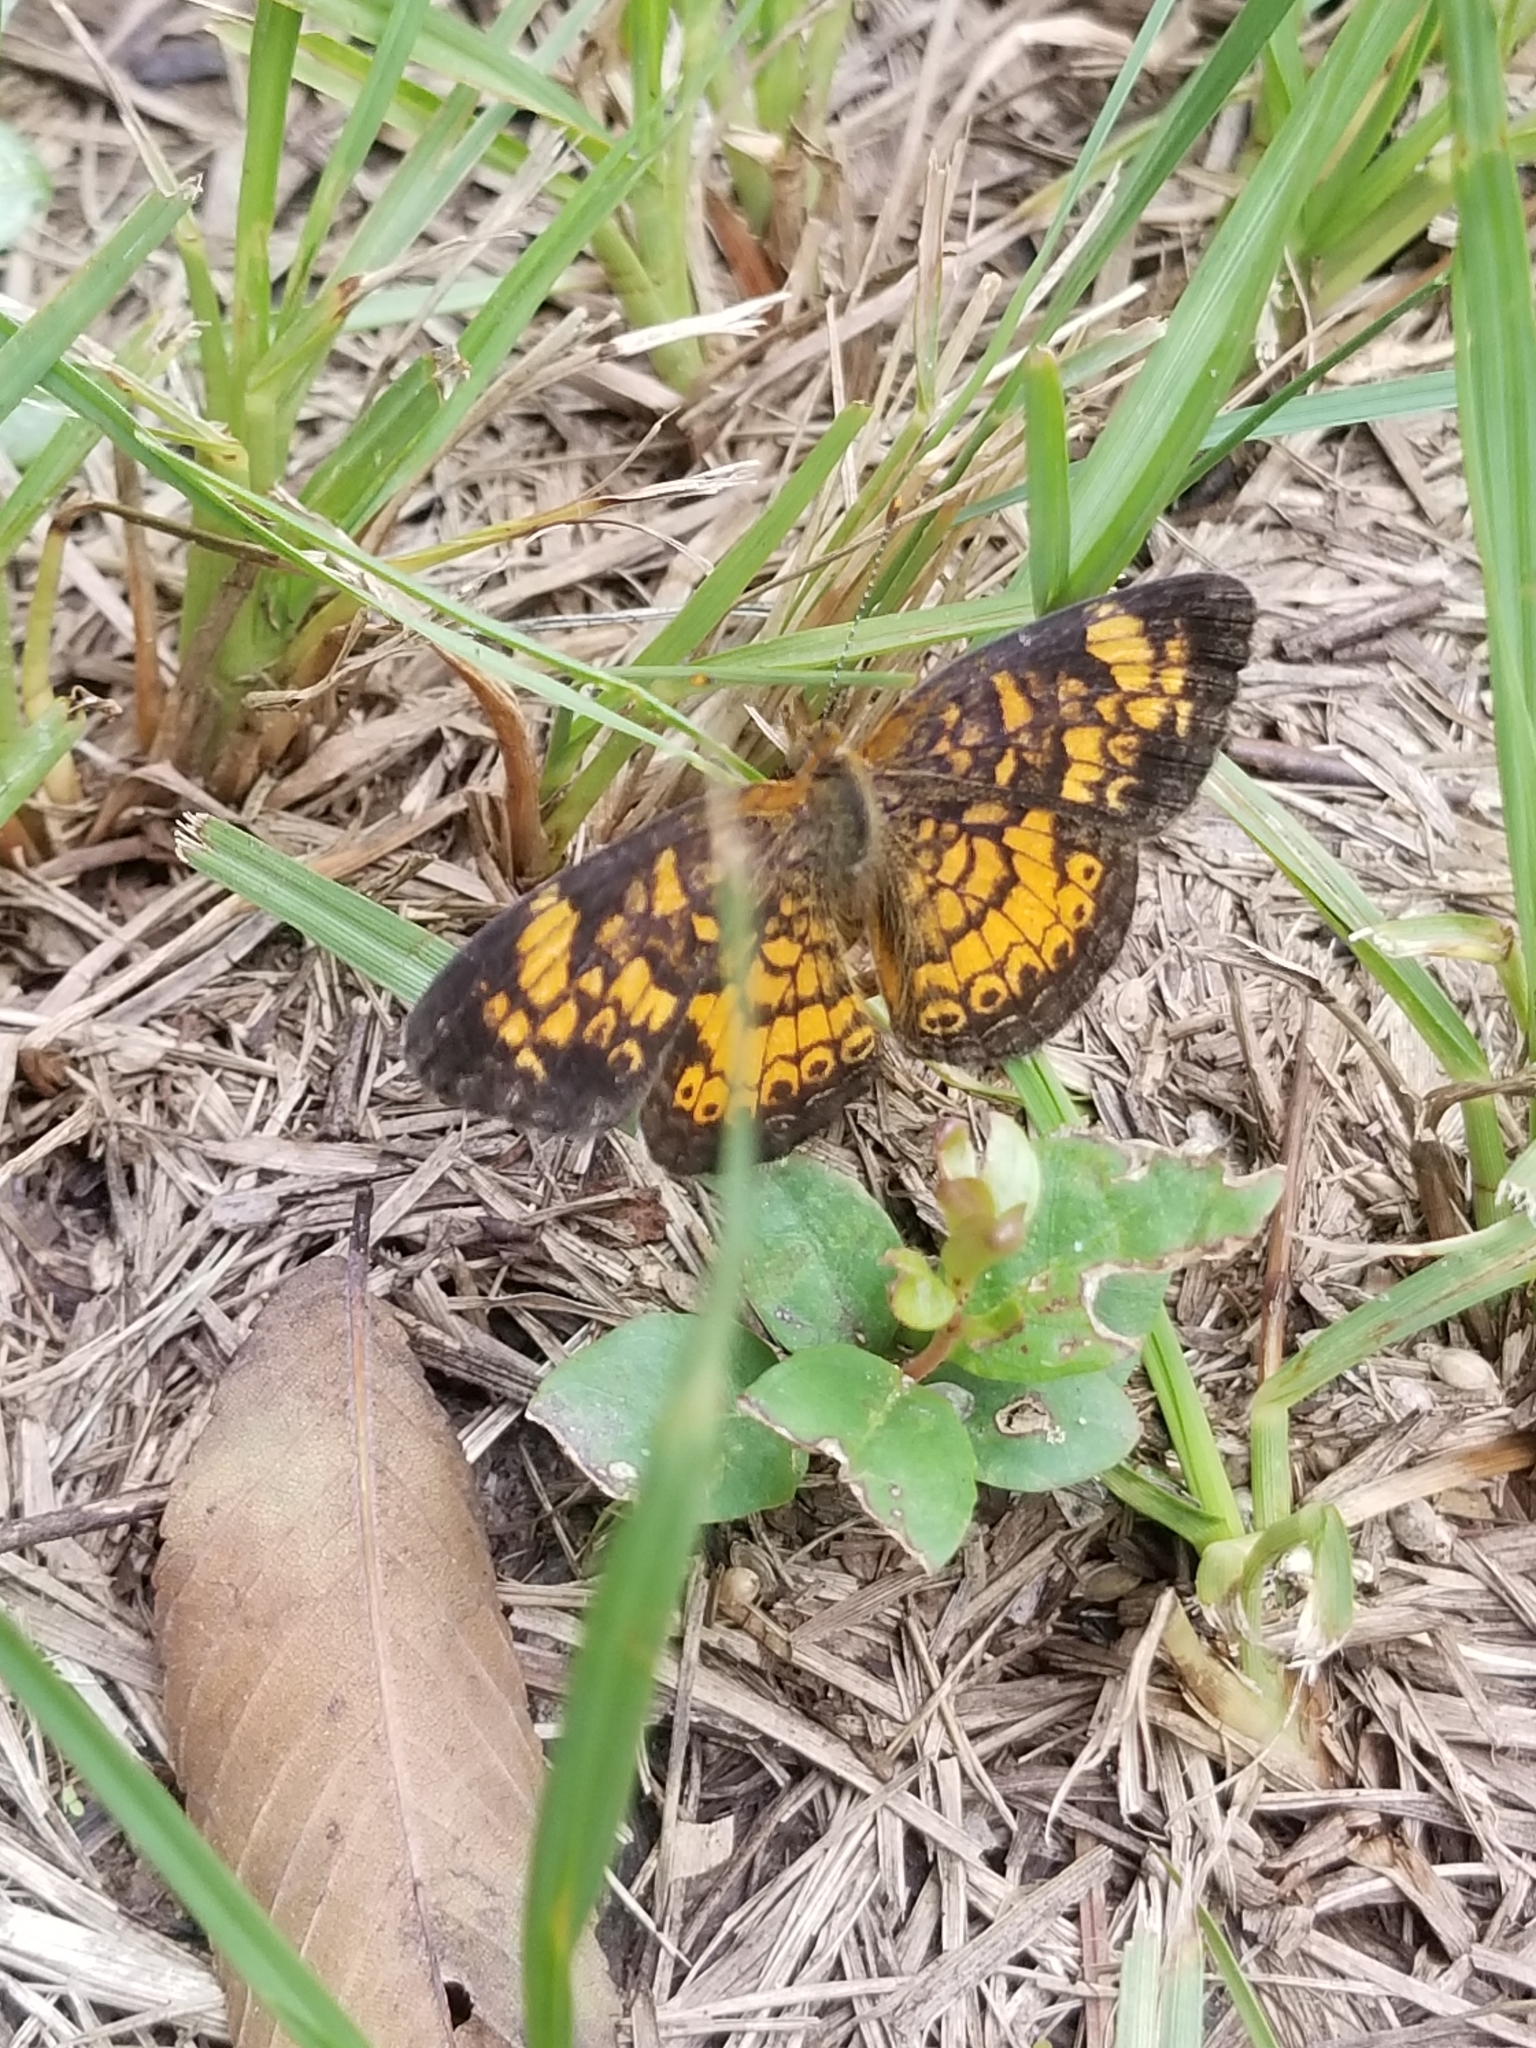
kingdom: Animalia
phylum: Arthropoda
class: Insecta
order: Lepidoptera
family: Nymphalidae
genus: Phyciodes
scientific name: Phyciodes tharos
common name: Pearl crescent
